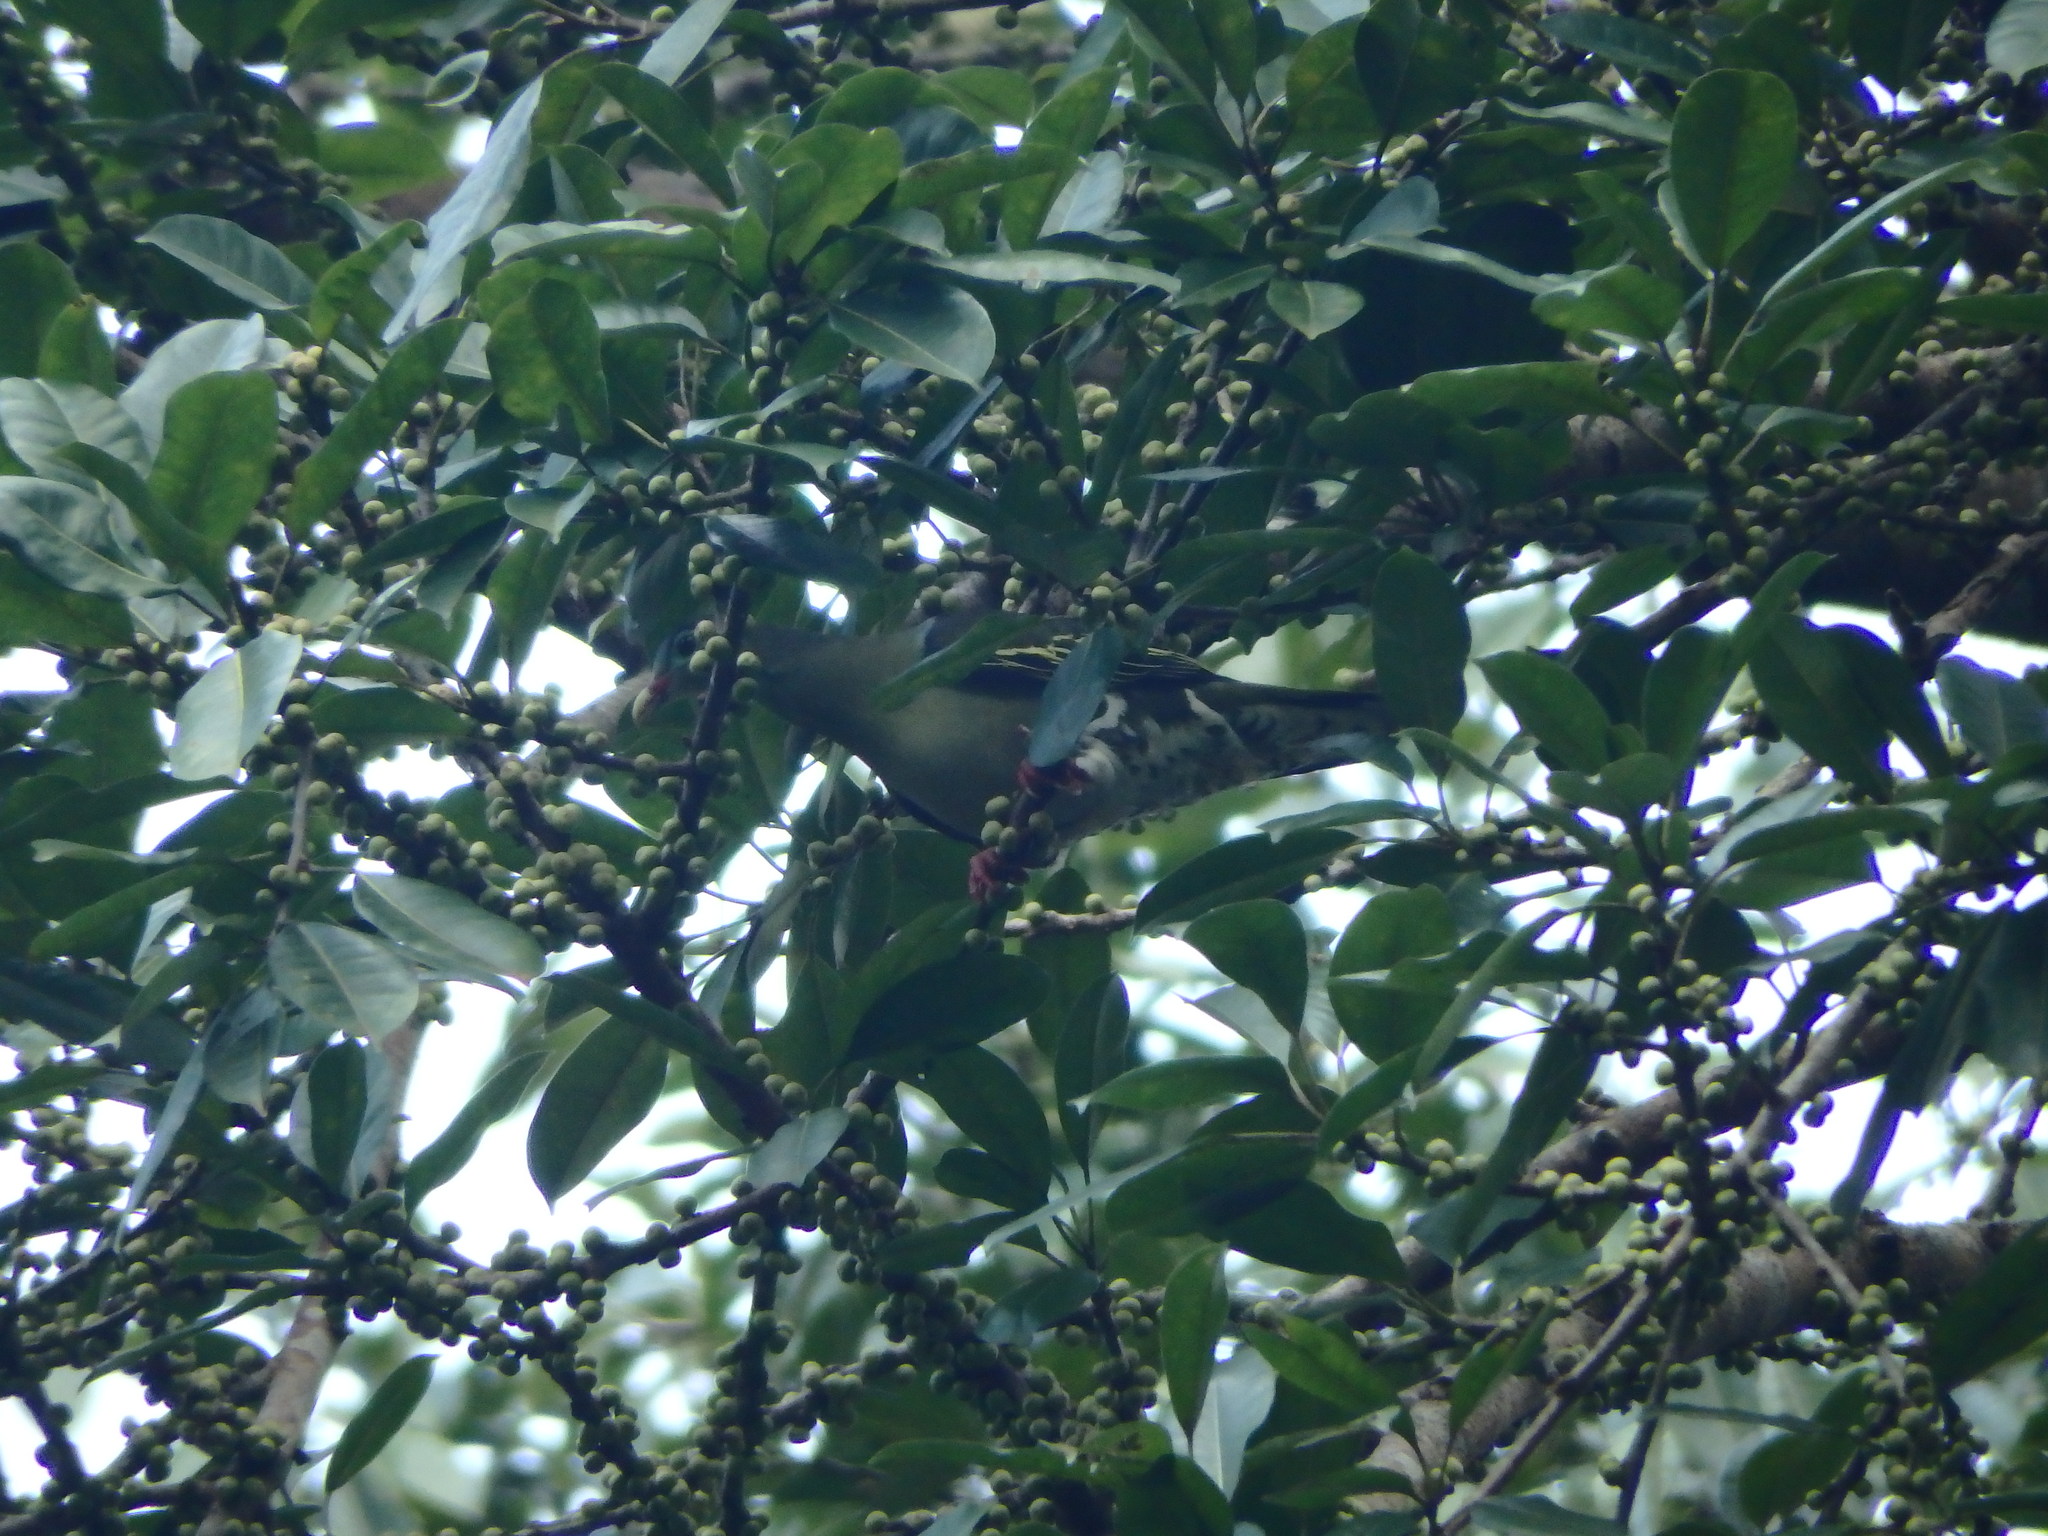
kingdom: Animalia
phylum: Chordata
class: Aves
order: Columbiformes
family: Columbidae
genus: Treron
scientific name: Treron curvirostra
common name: Thick-billed green pigeon
